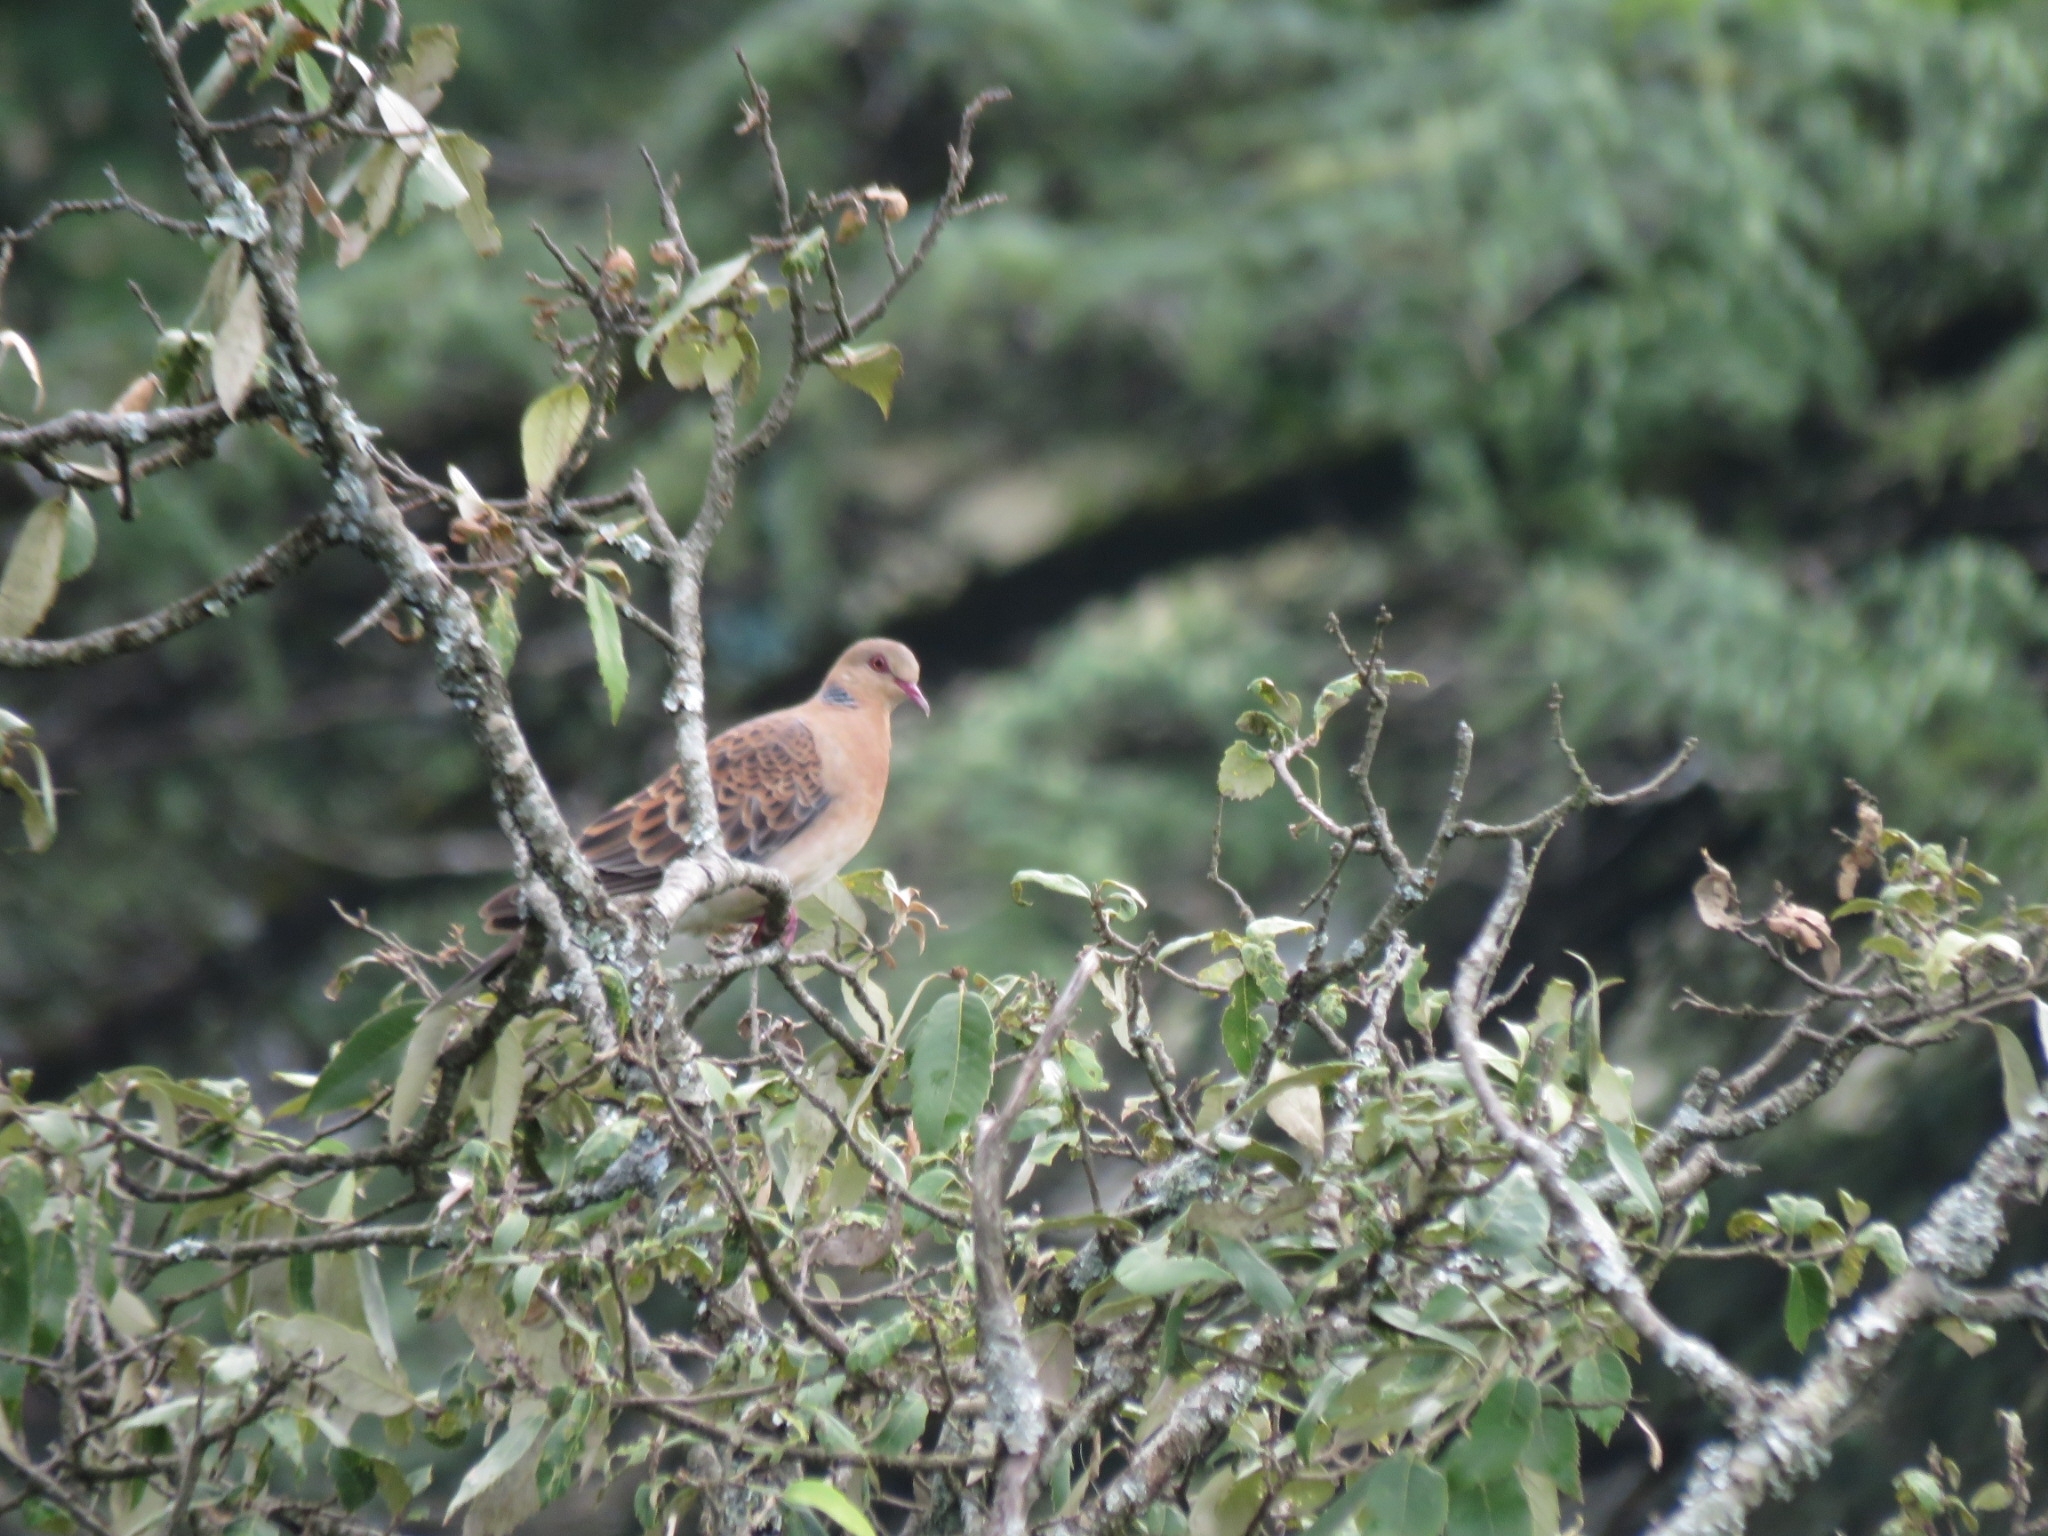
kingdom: Animalia
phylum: Chordata
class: Aves
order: Columbiformes
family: Columbidae
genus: Streptopelia
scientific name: Streptopelia orientalis
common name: Oriental turtle dove
